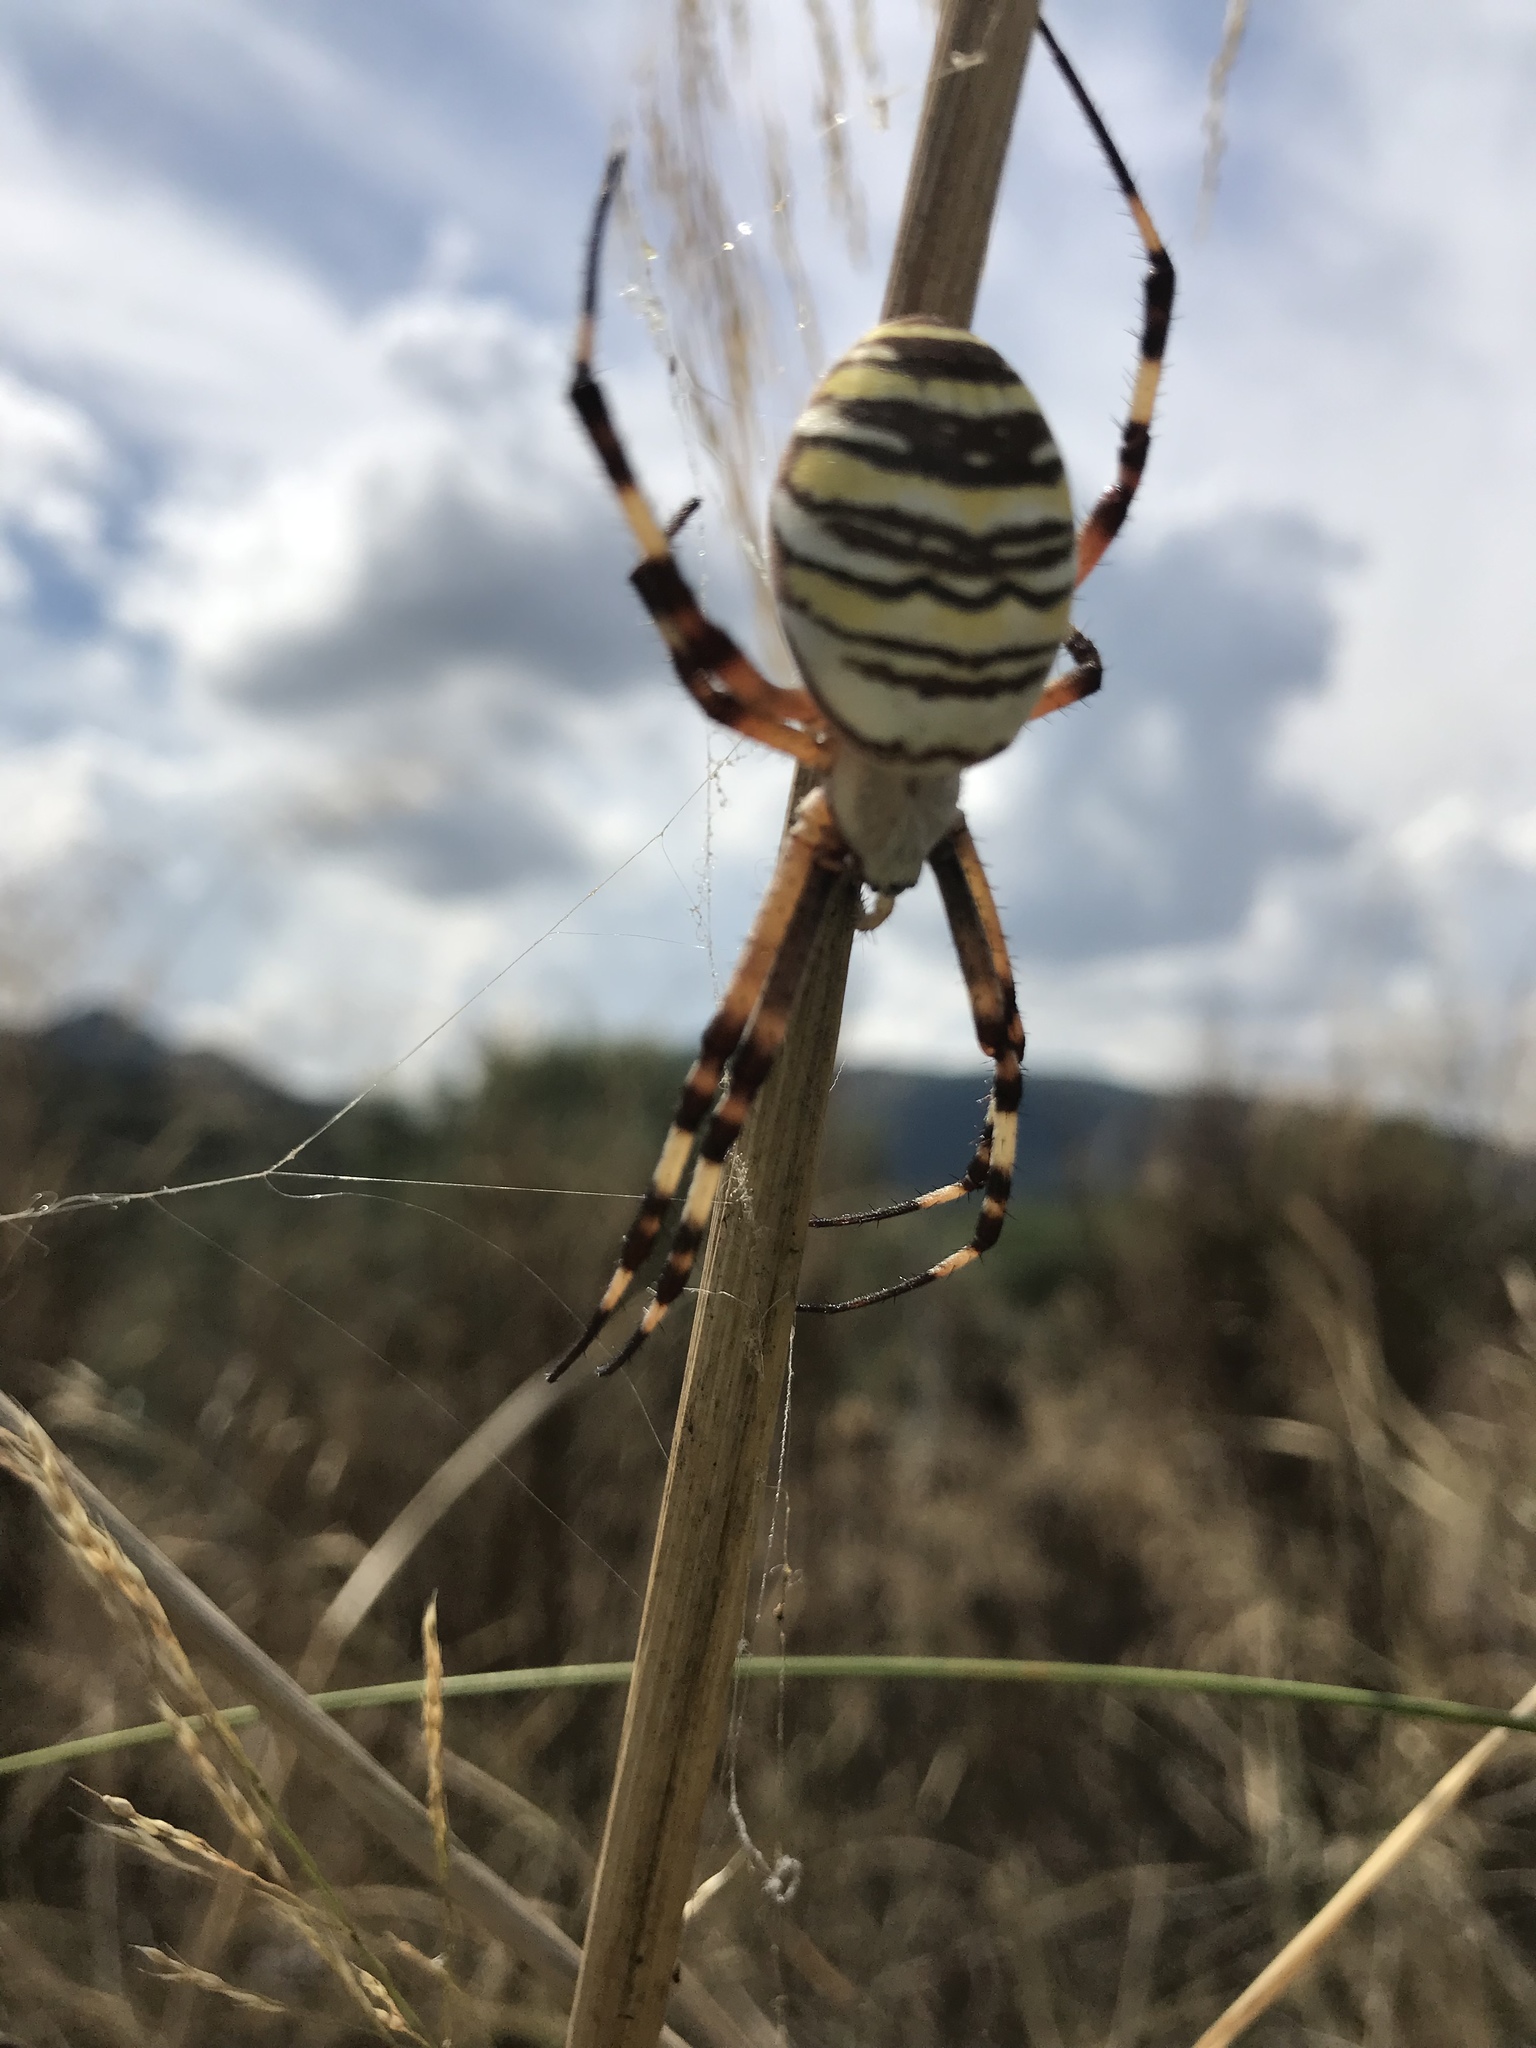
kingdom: Animalia
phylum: Arthropoda
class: Arachnida
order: Araneae
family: Araneidae
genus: Argiope
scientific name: Argiope bruennichi
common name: Wasp spider
